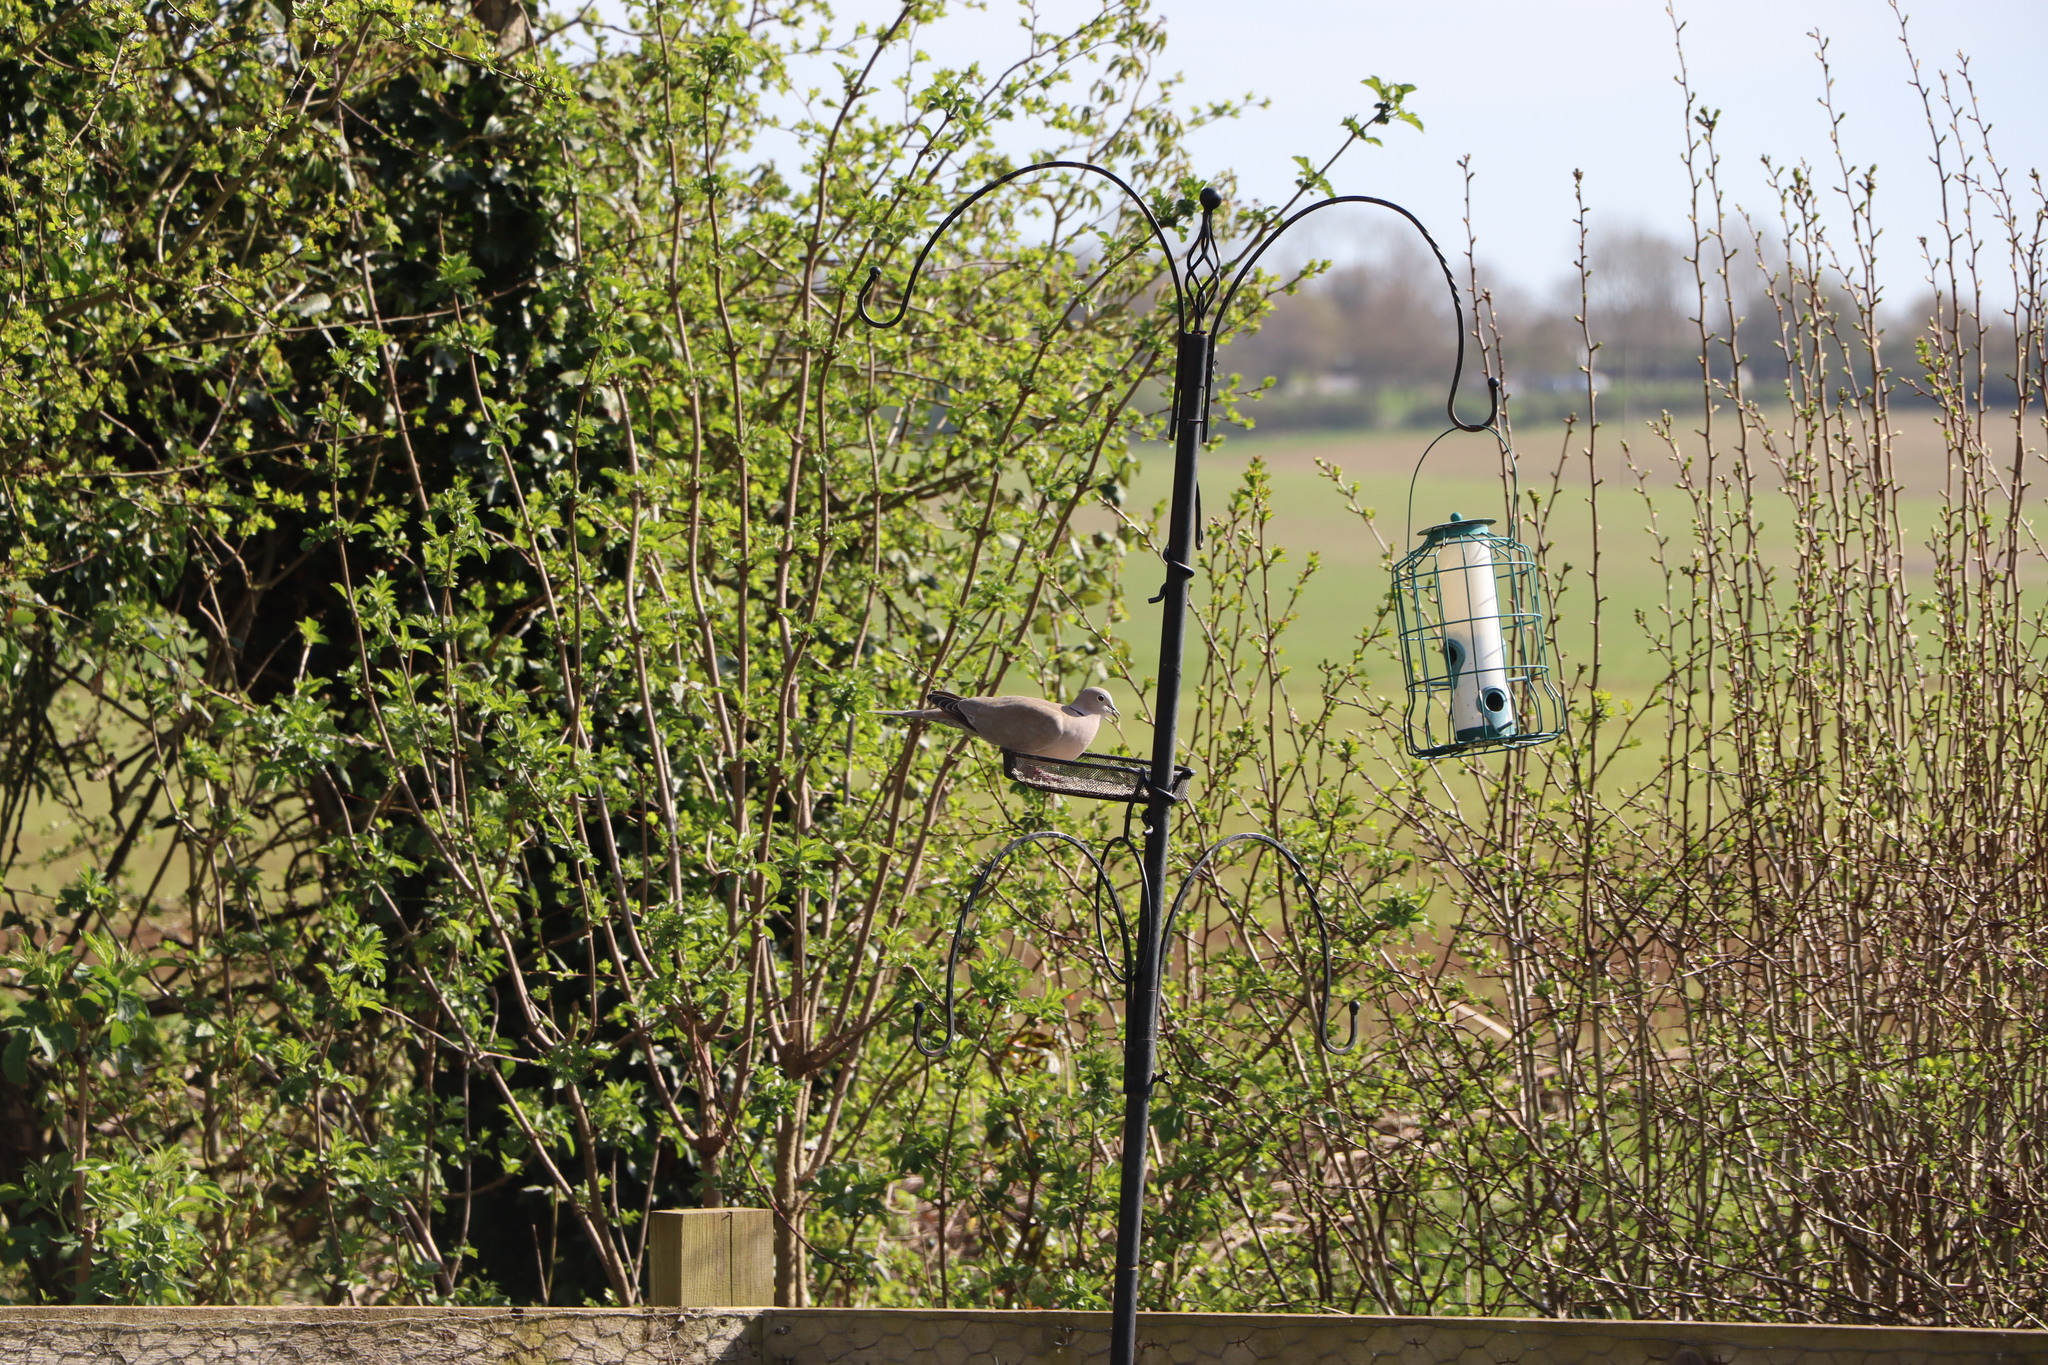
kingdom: Animalia
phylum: Chordata
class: Aves
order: Columbiformes
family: Columbidae
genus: Streptopelia
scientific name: Streptopelia decaocto
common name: Eurasian collared dove
